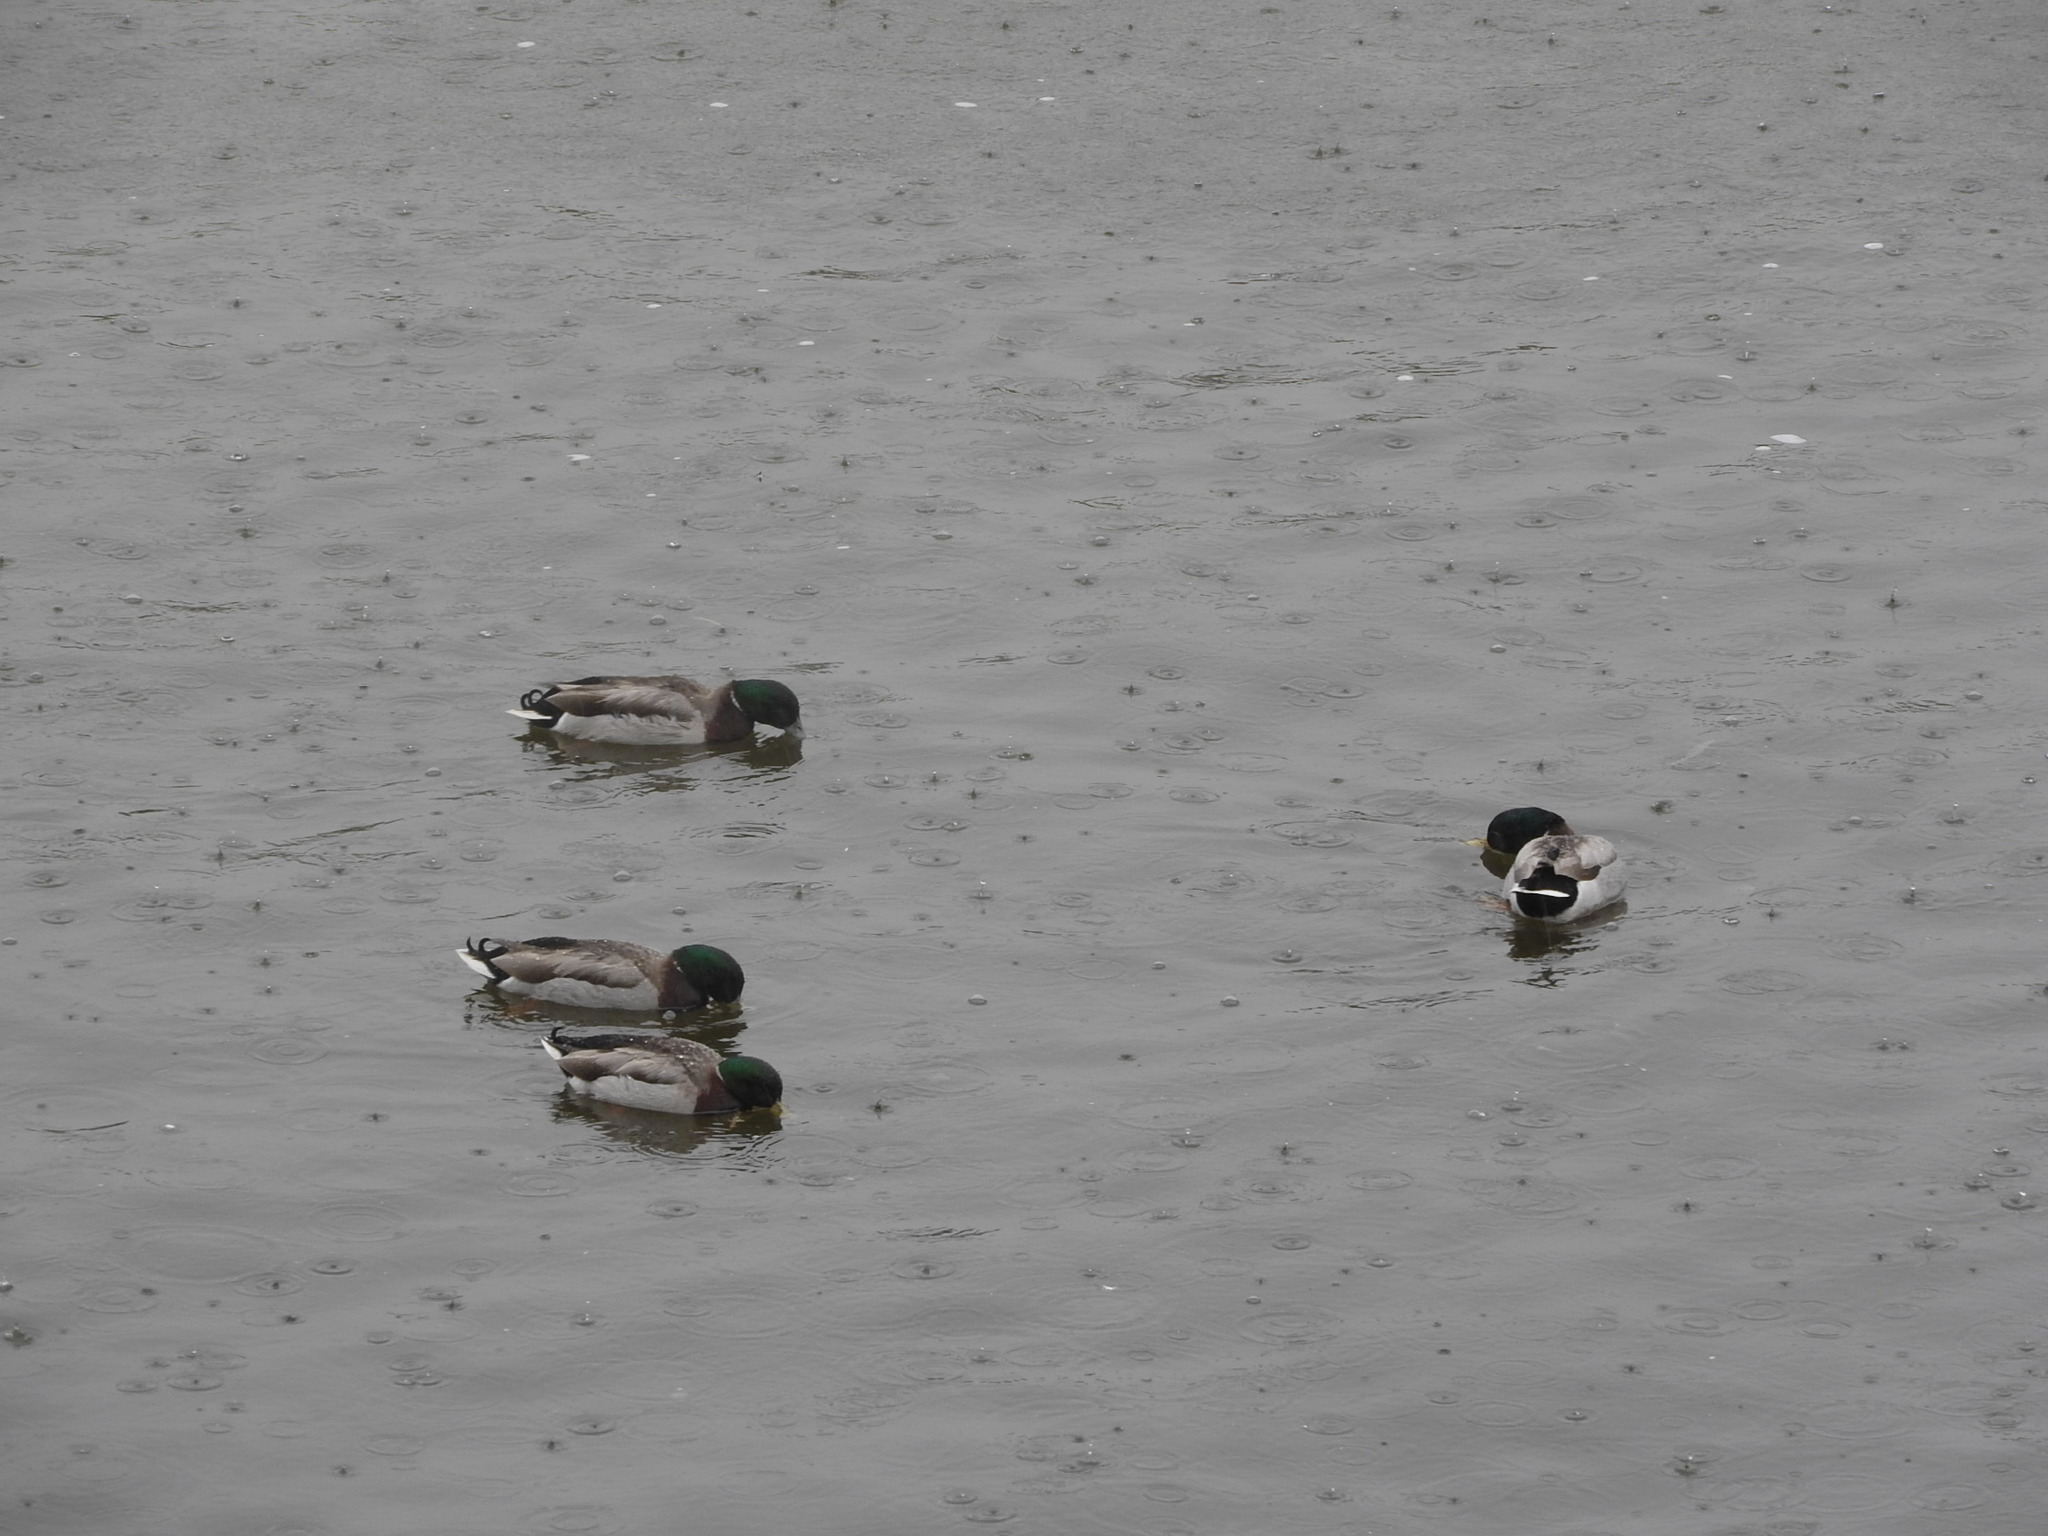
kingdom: Animalia
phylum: Chordata
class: Aves
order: Anseriformes
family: Anatidae
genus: Anas
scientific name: Anas platyrhynchos
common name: Mallard
